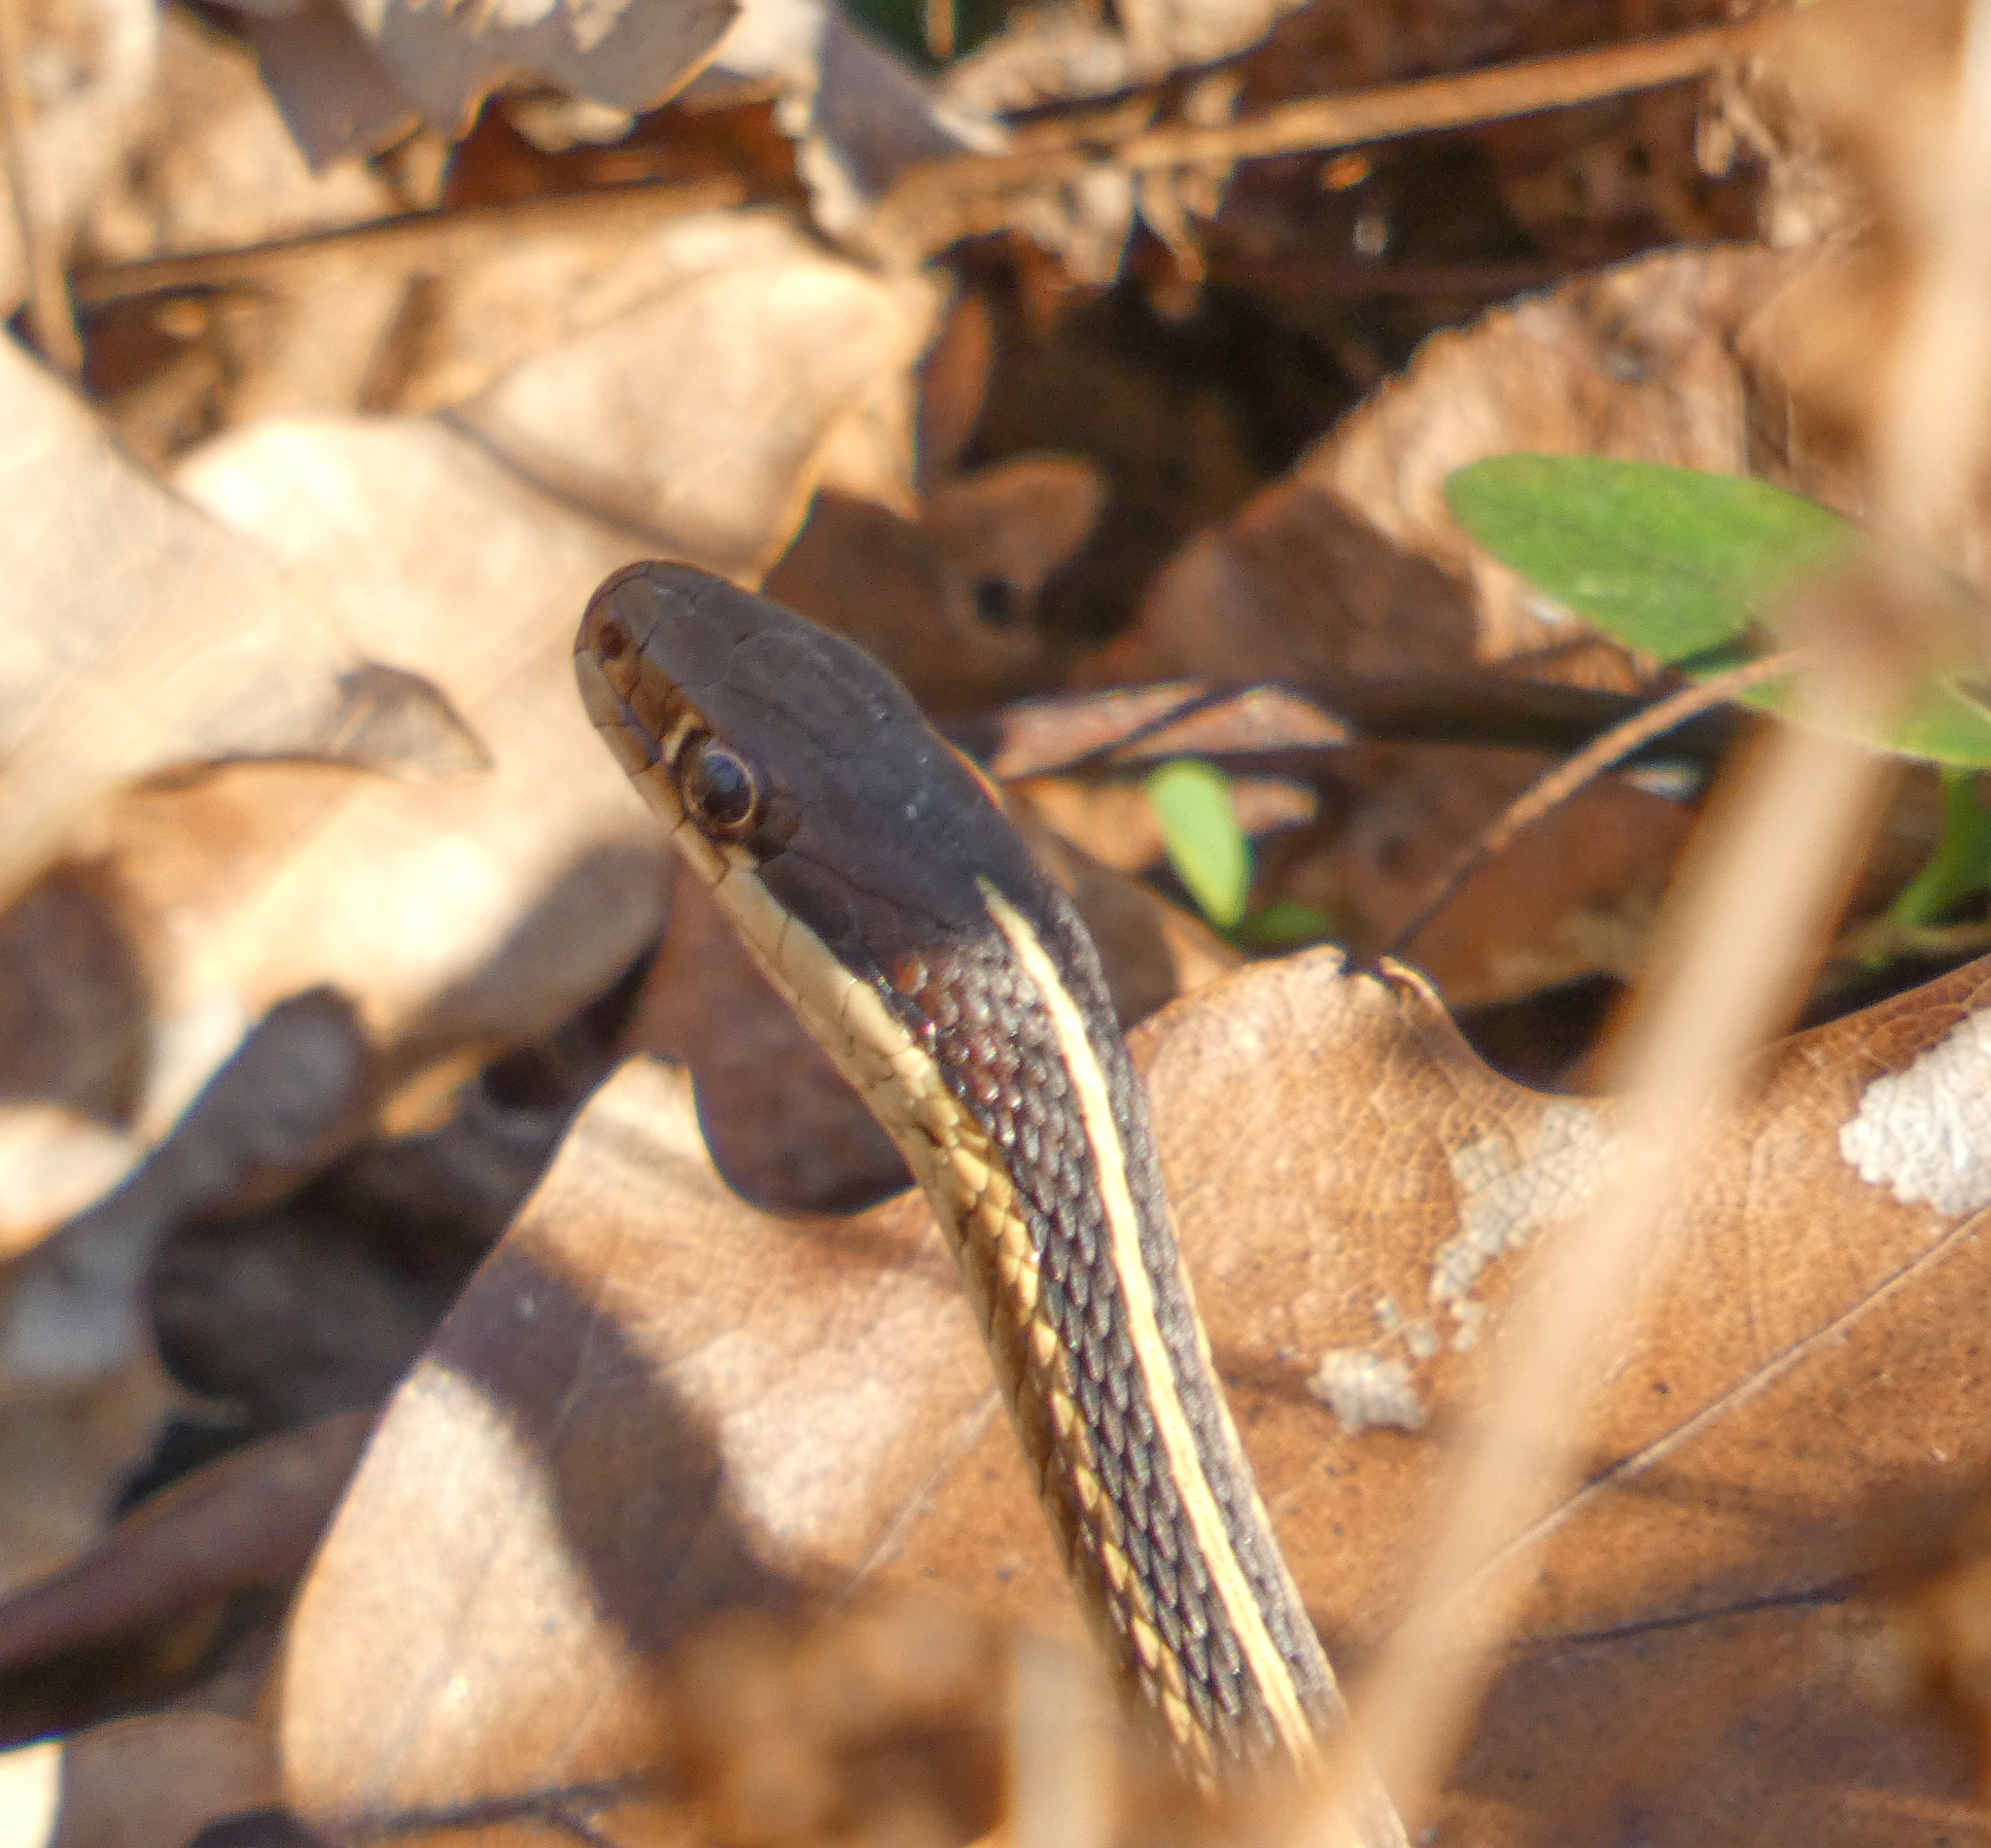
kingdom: Animalia
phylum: Chordata
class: Squamata
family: Colubridae
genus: Thamnophis
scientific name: Thamnophis saurita
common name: Eastern ribbonsnake
